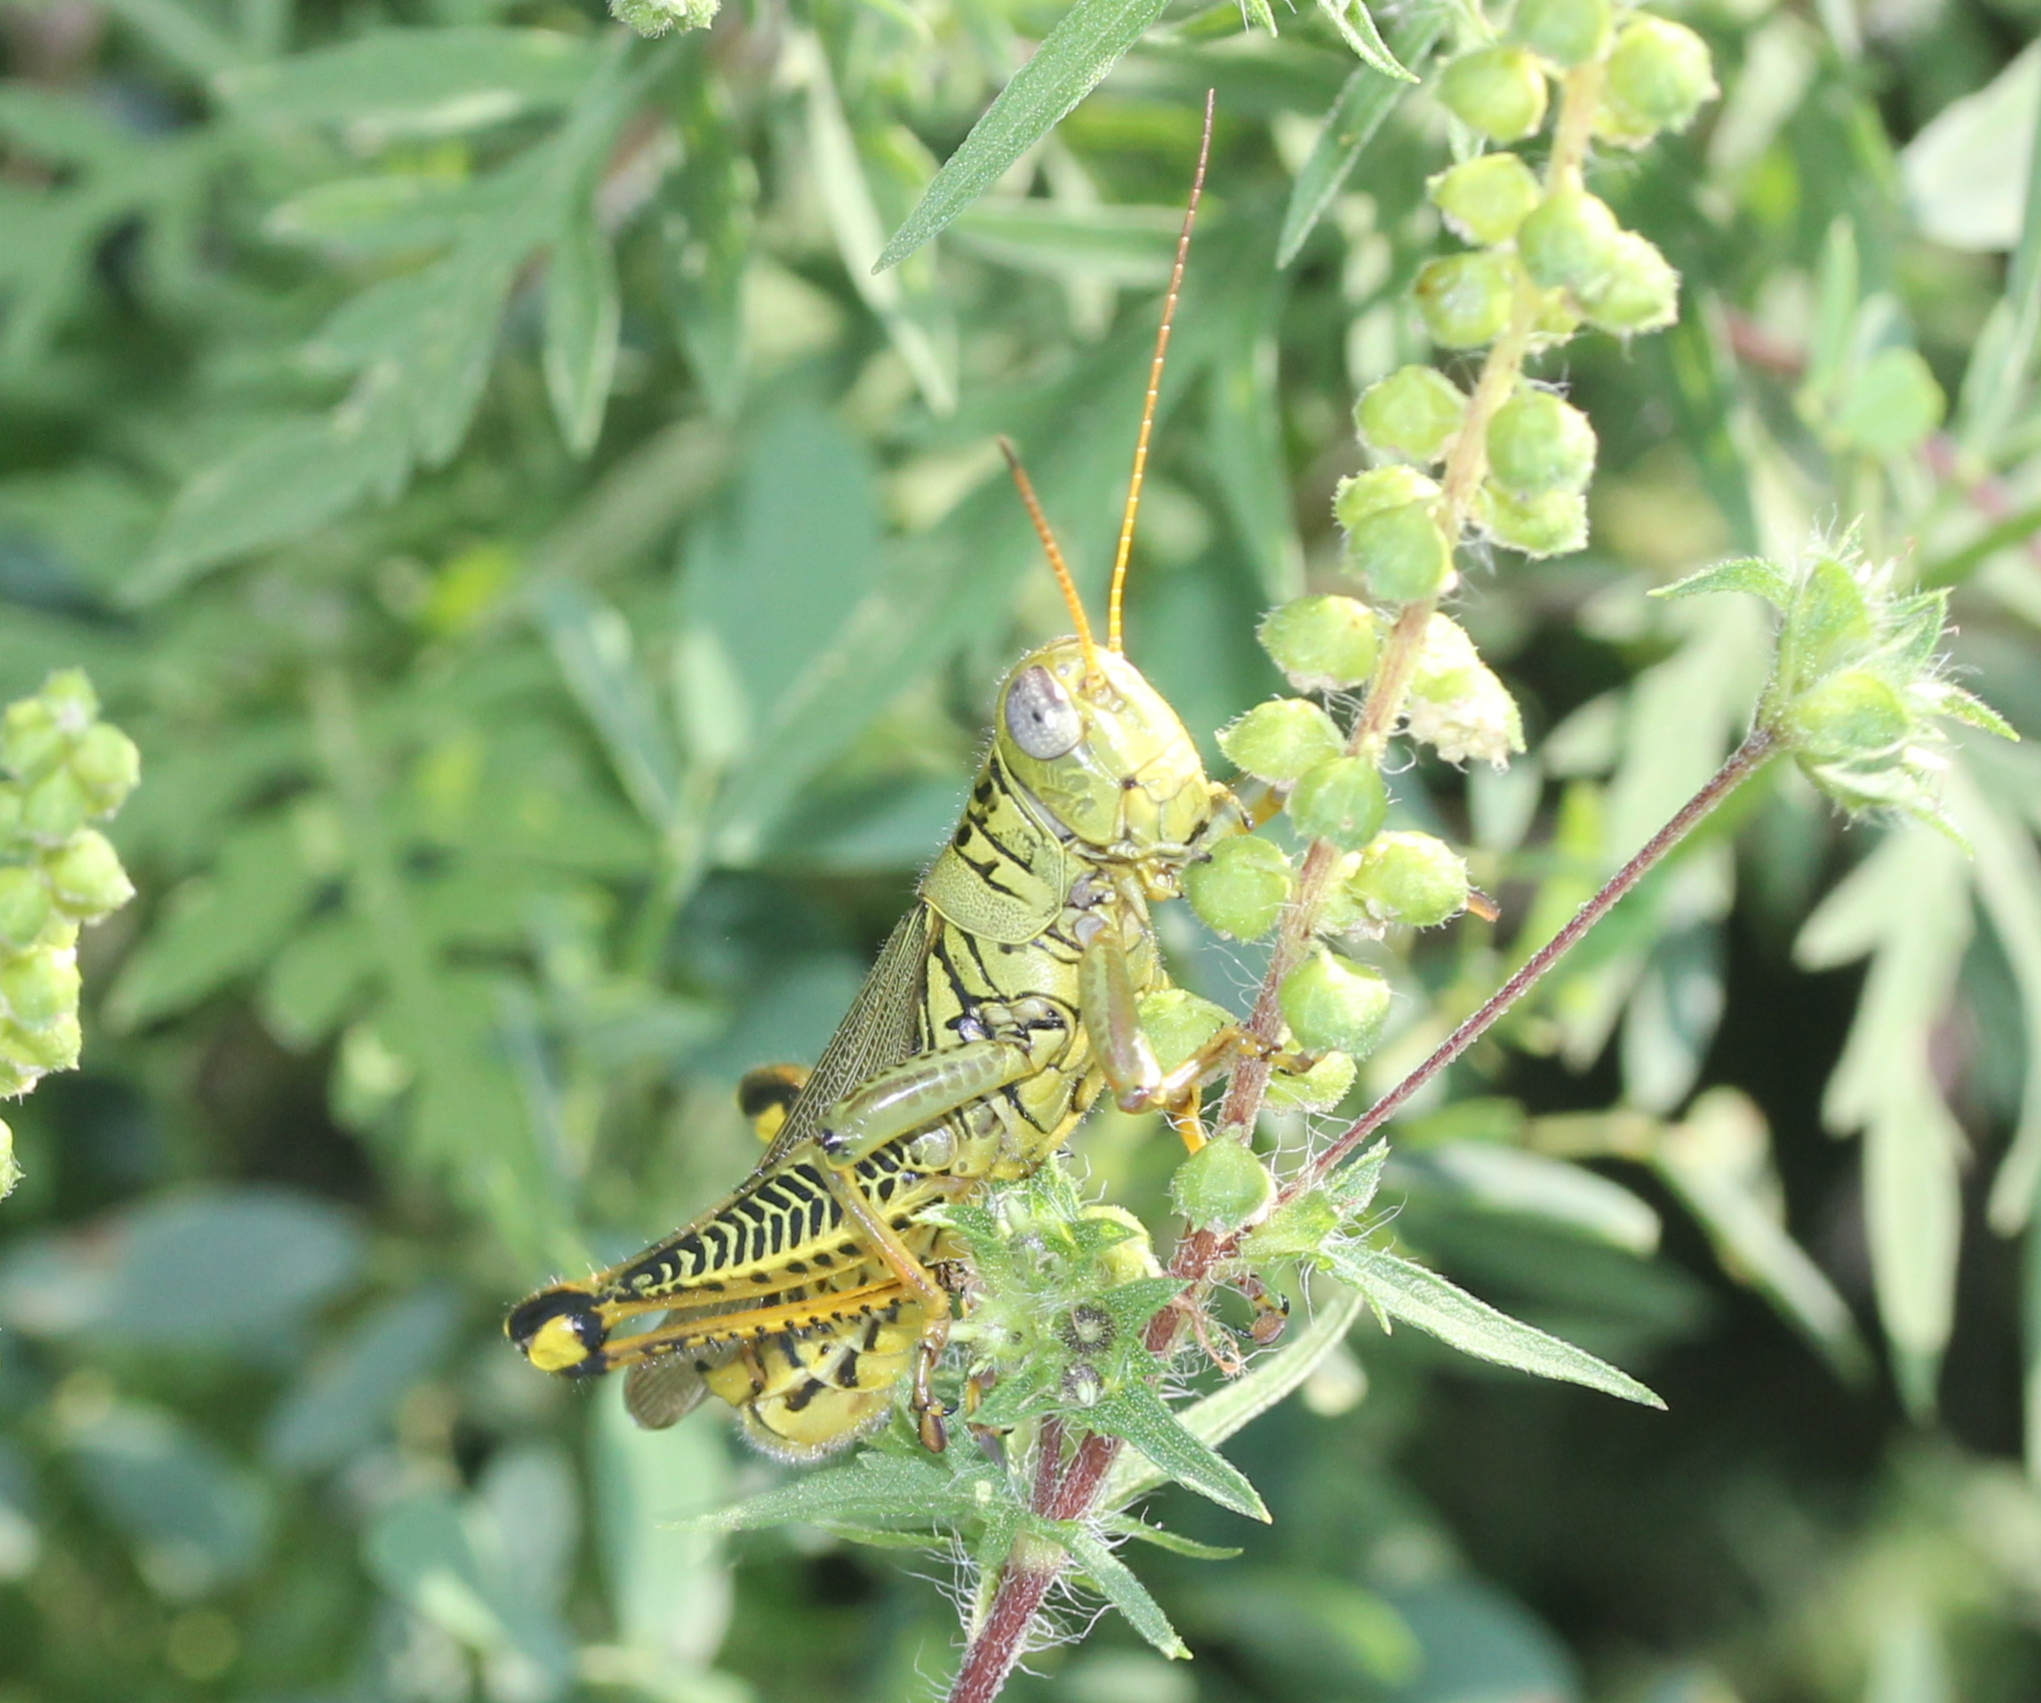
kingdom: Animalia
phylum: Arthropoda
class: Insecta
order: Orthoptera
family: Acrididae
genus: Melanoplus
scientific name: Melanoplus differentialis
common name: Differential grasshopper
